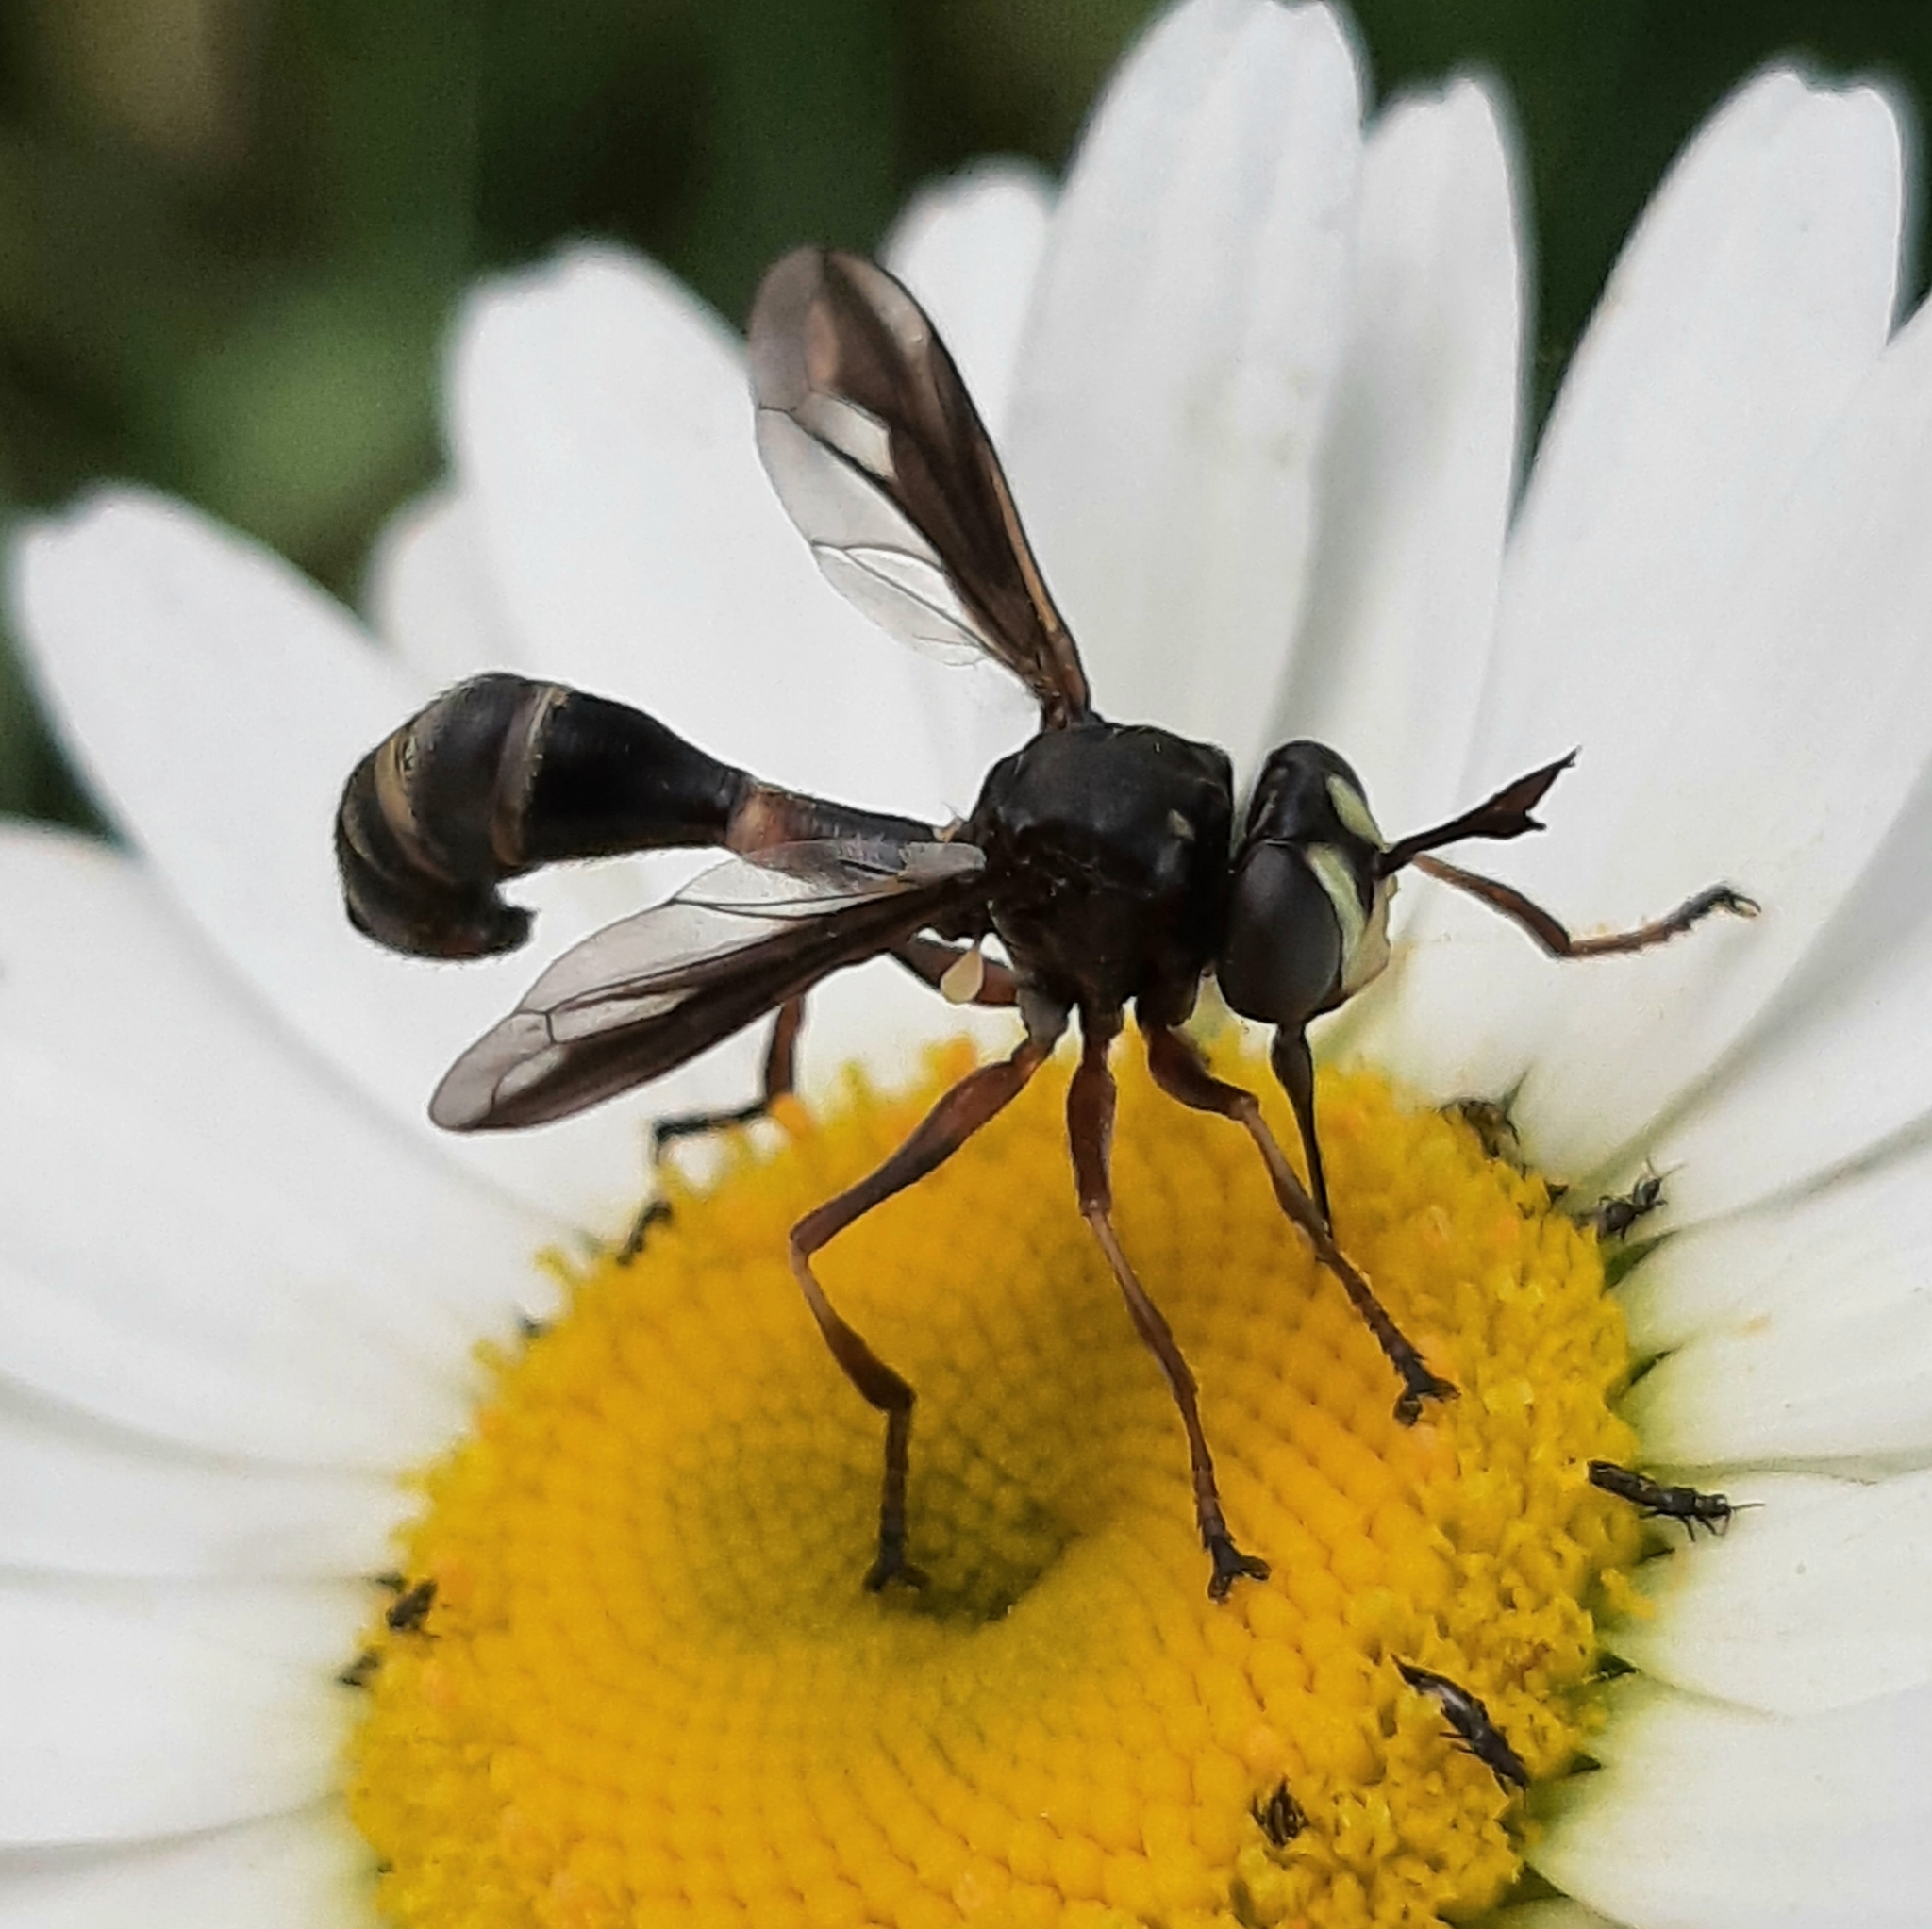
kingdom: Animalia
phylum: Arthropoda
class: Insecta
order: Diptera
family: Conopidae
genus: Physocephala
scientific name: Physocephala furcillata
